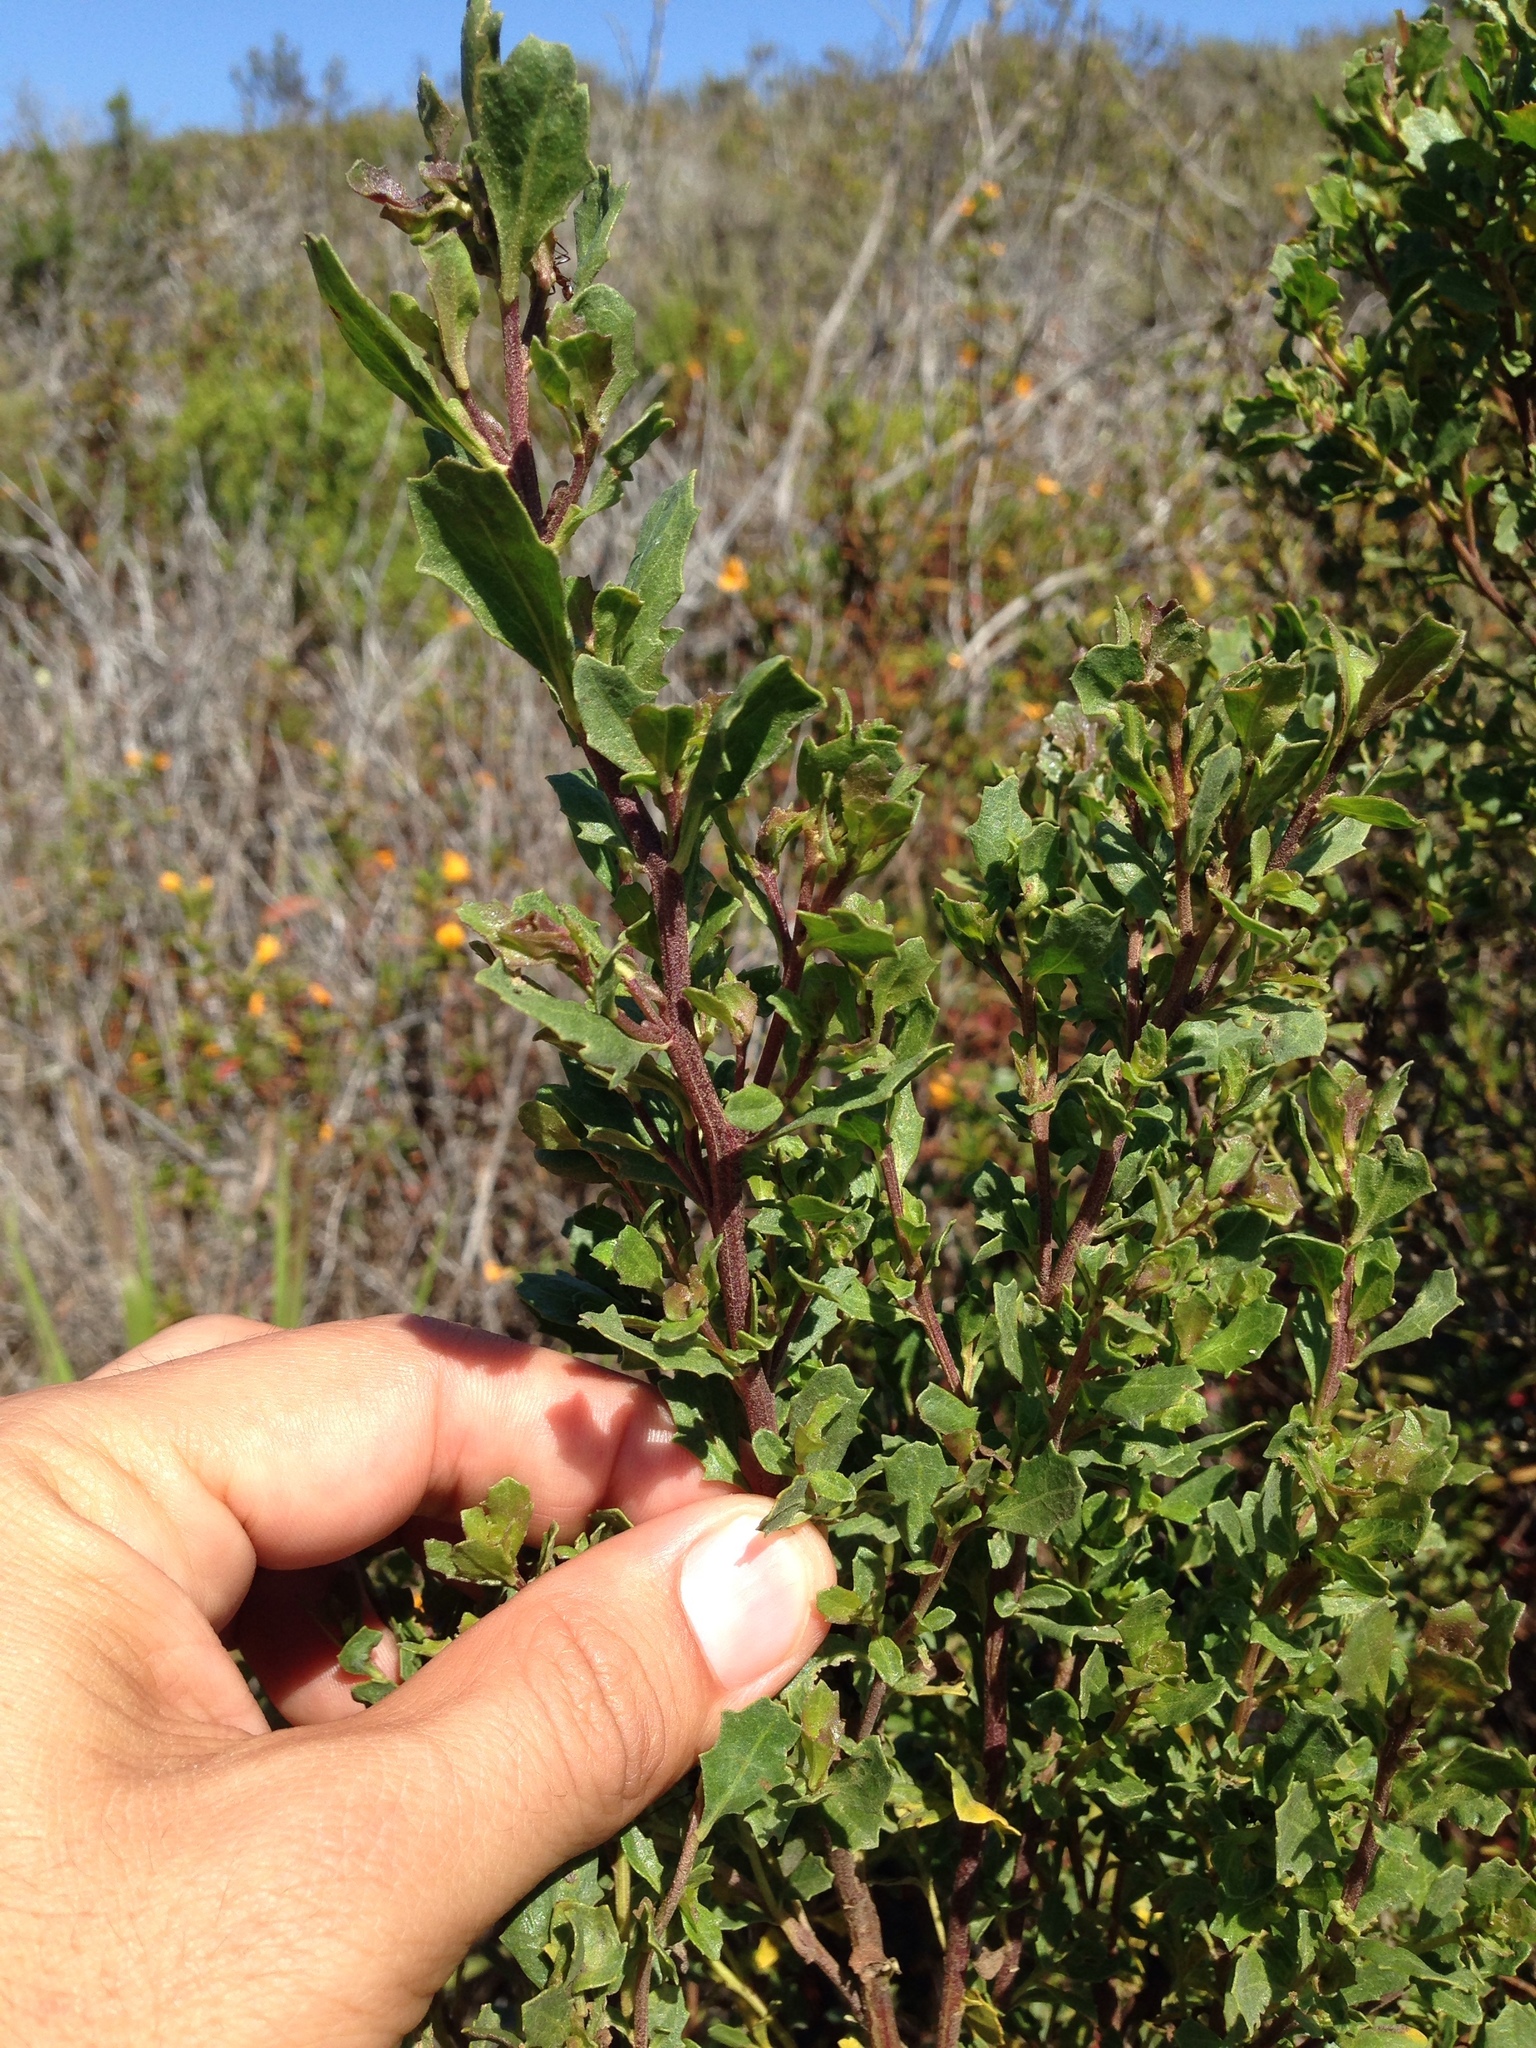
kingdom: Plantae
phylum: Tracheophyta
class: Magnoliopsida
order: Asterales
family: Asteraceae
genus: Baccharis
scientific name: Baccharis pilularis
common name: Coyotebrush
